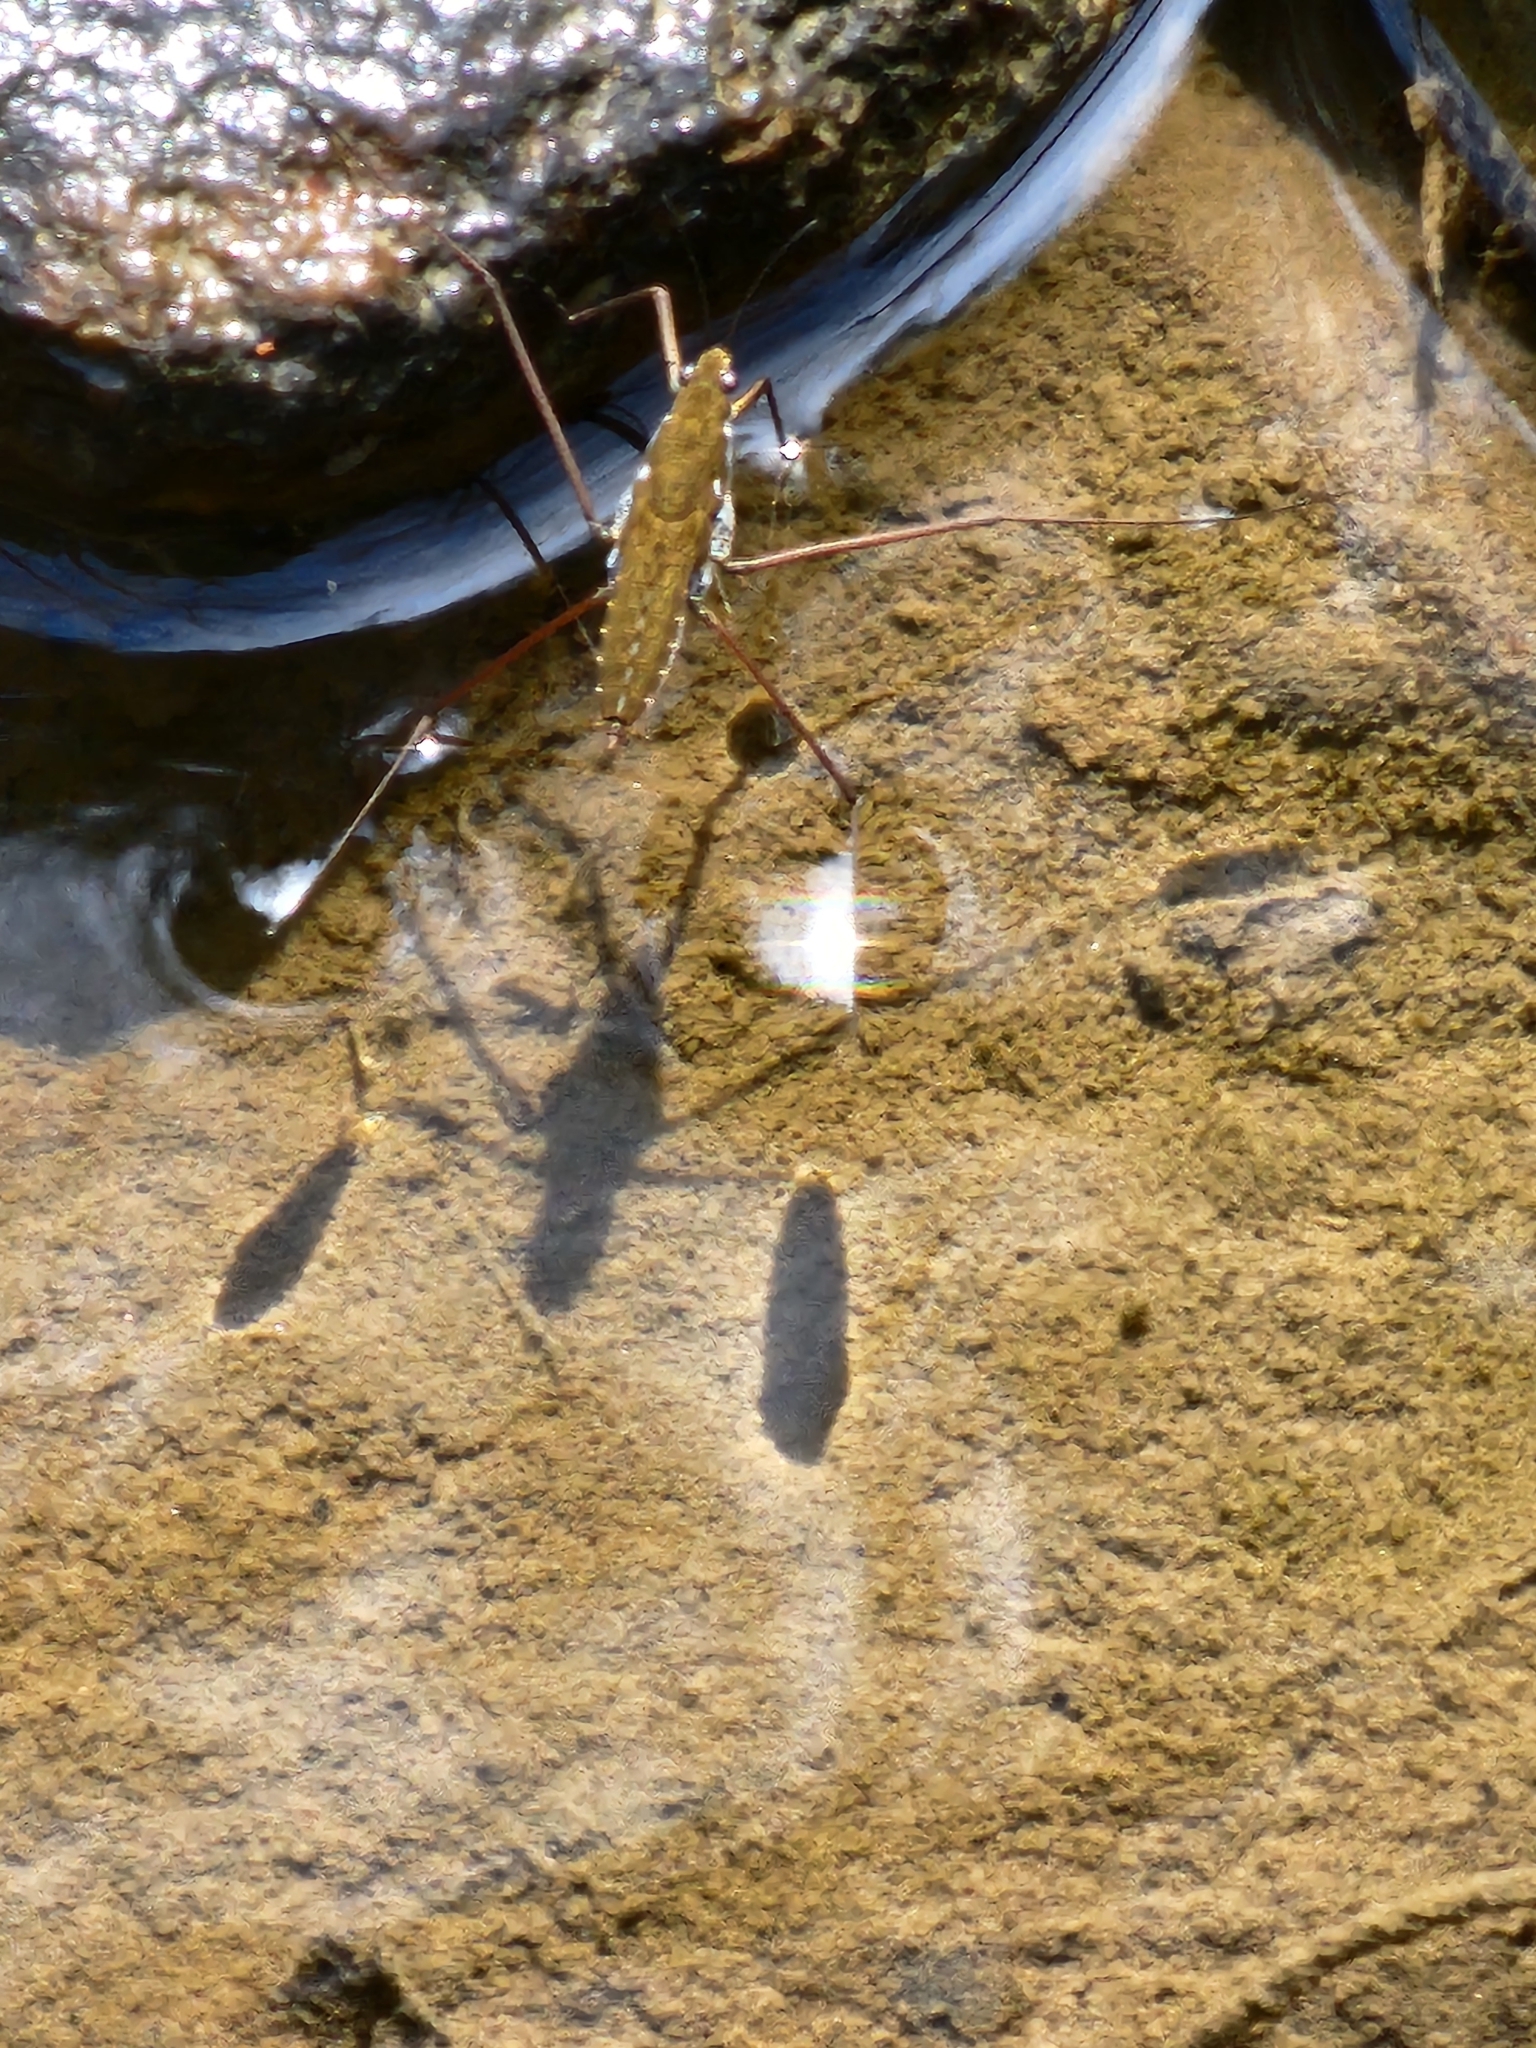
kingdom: Animalia
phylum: Arthropoda
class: Insecta
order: Hemiptera
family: Gerridae
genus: Aquarius
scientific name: Aquarius remigis
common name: Common water strider
